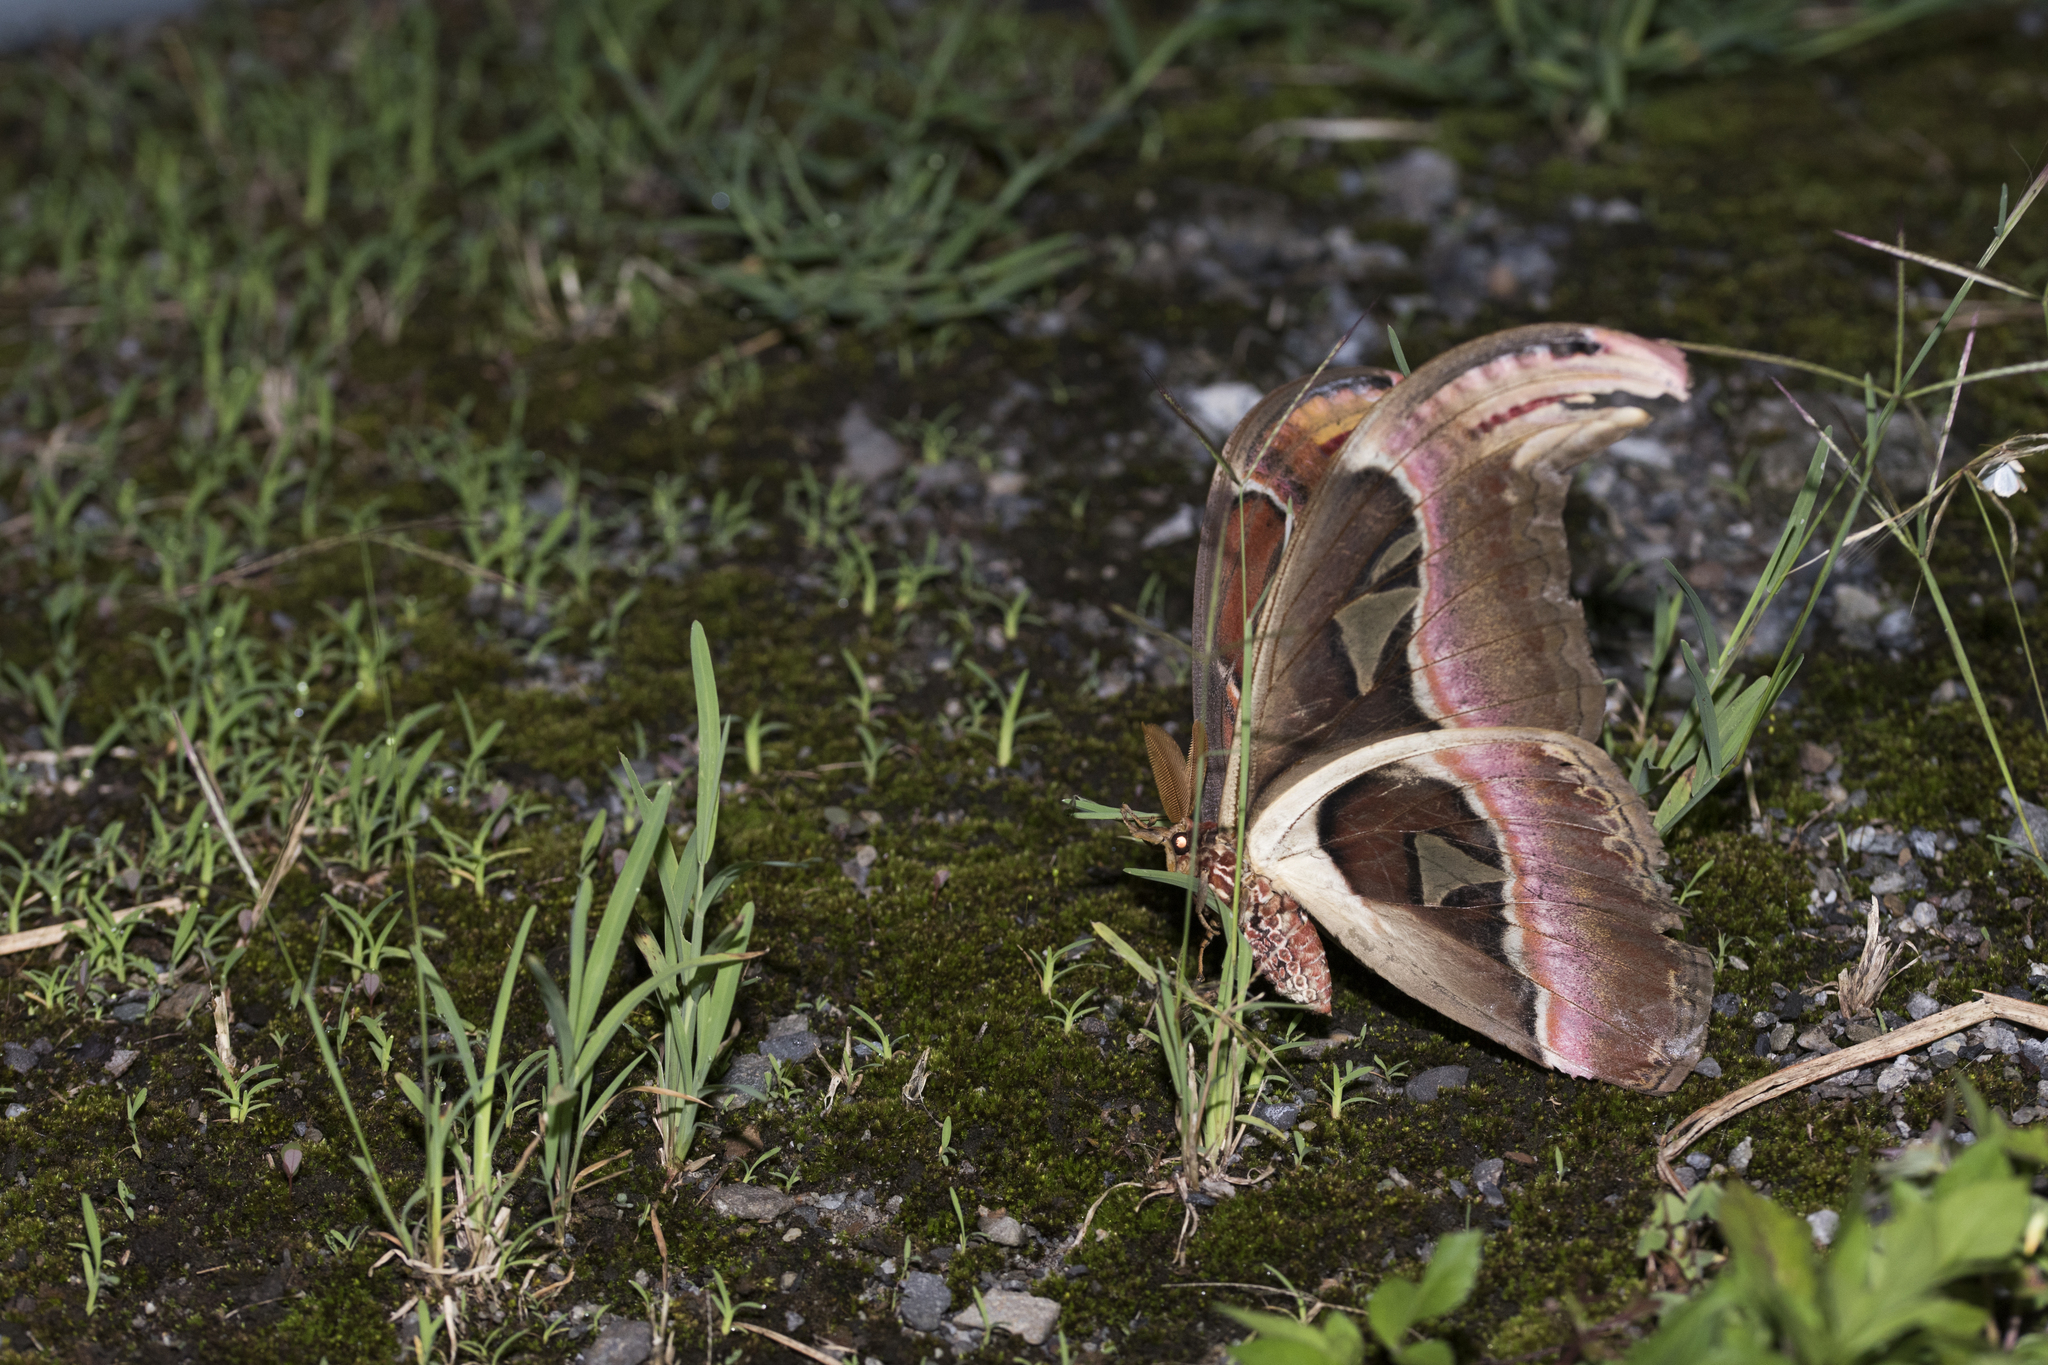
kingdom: Animalia
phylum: Arthropoda
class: Insecta
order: Lepidoptera
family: Saturniidae
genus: Attacus
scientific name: Attacus atlas
